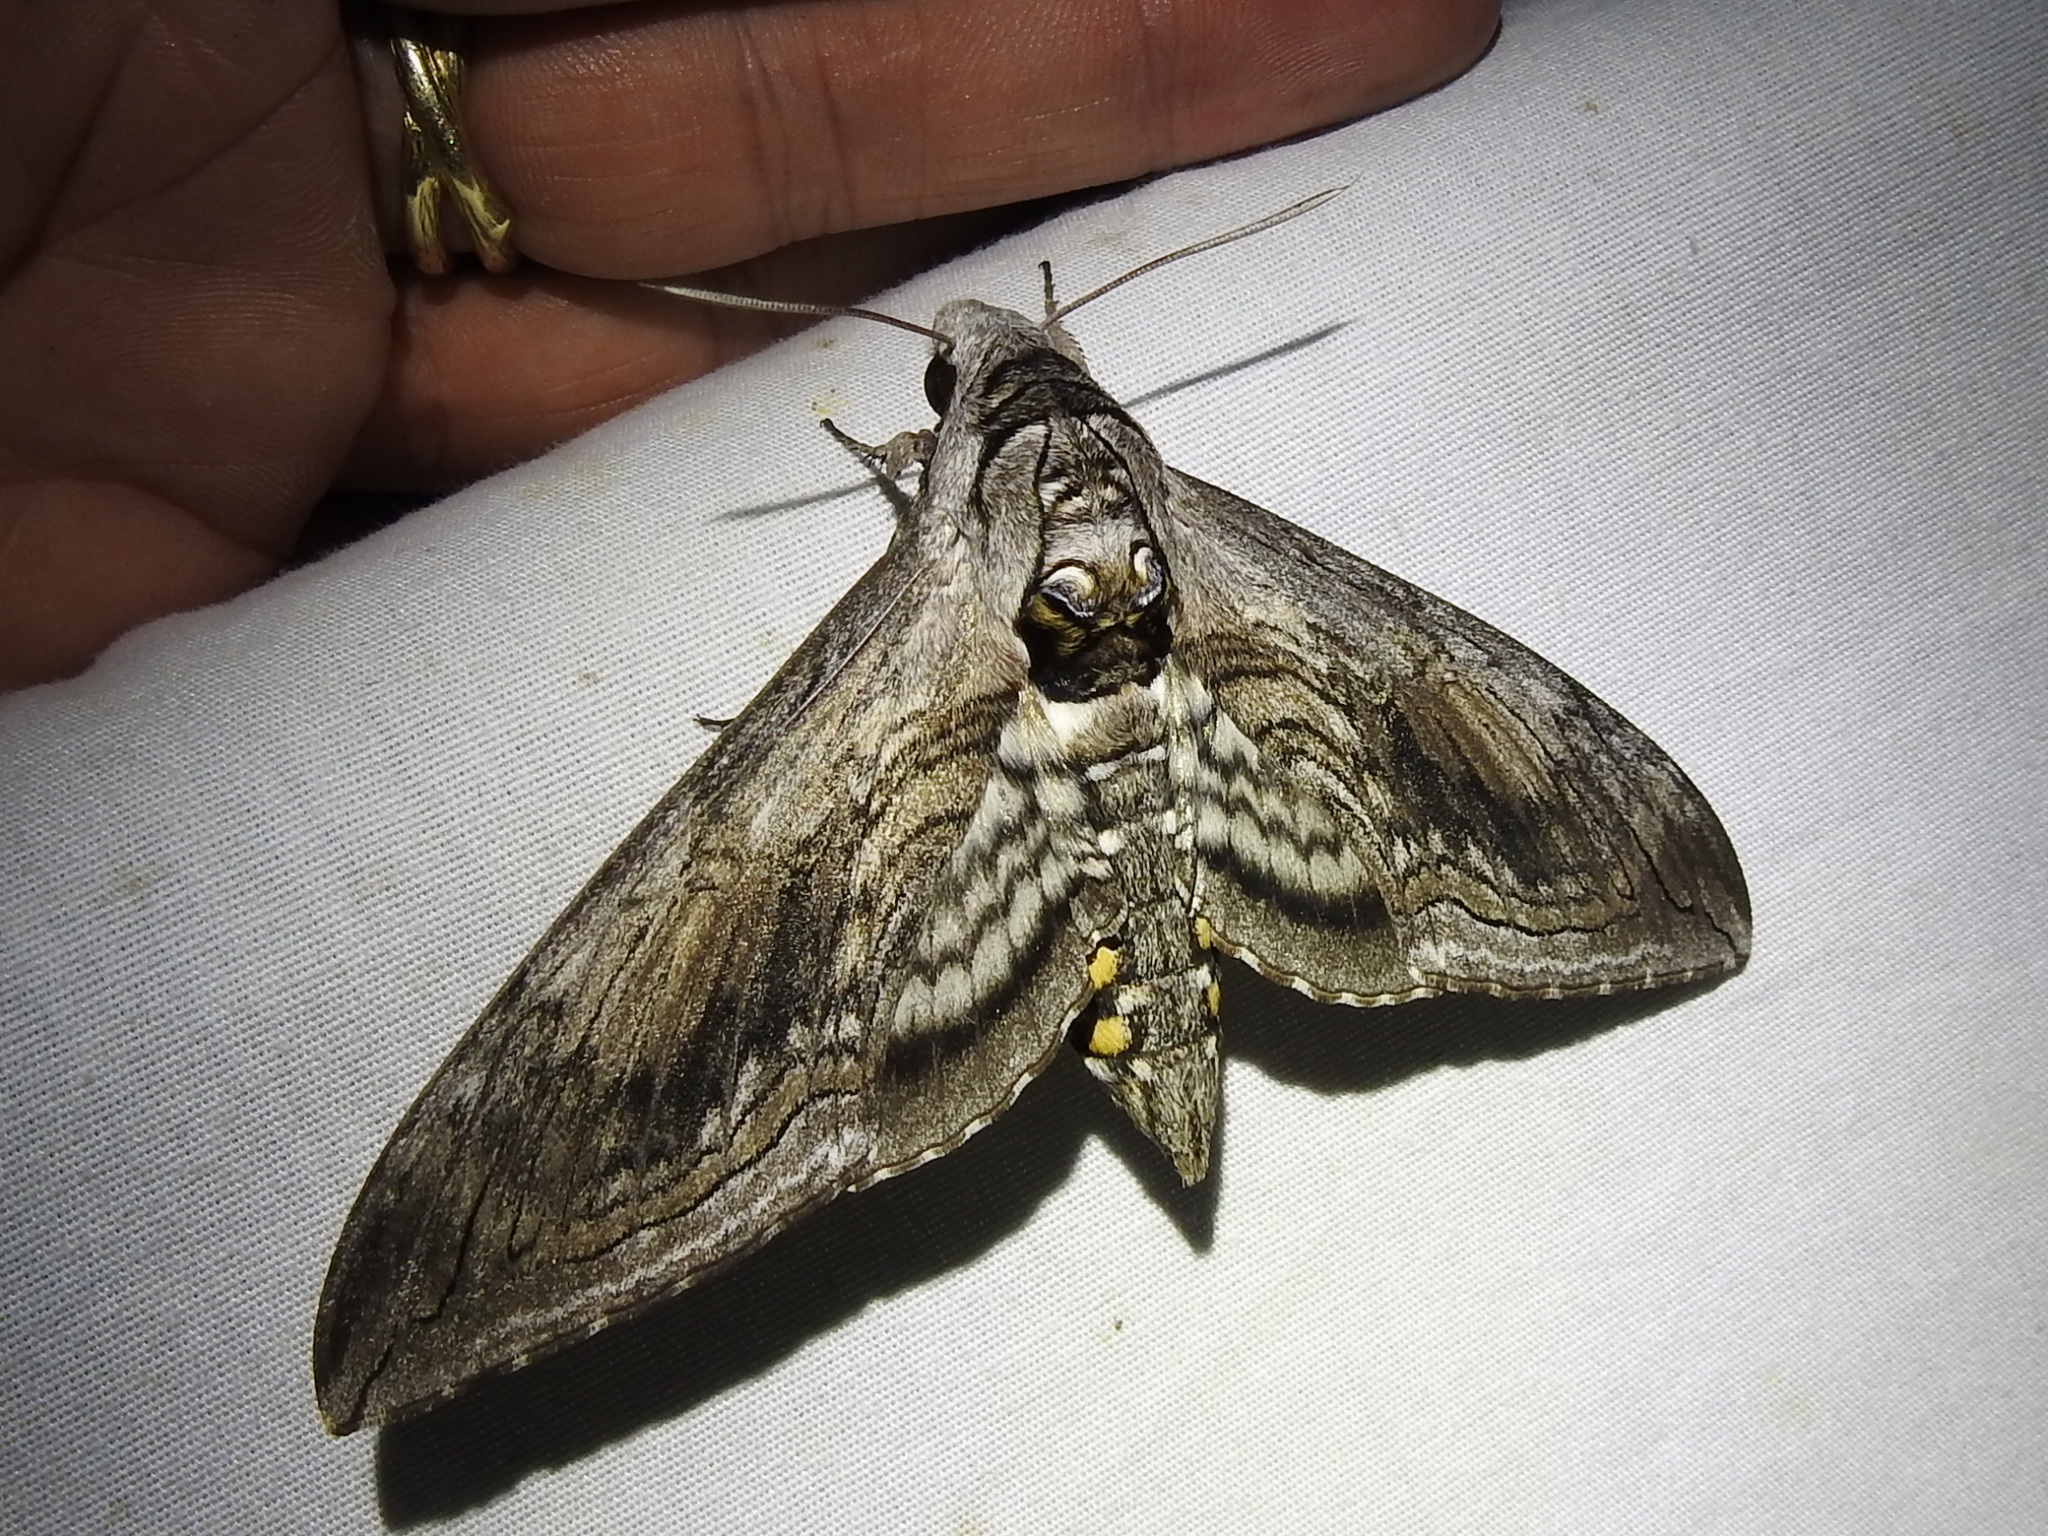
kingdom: Animalia
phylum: Arthropoda
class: Insecta
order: Lepidoptera
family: Sphingidae
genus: Manduca
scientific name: Manduca quinquemaculatus
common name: Five-spotted hawk-moth
